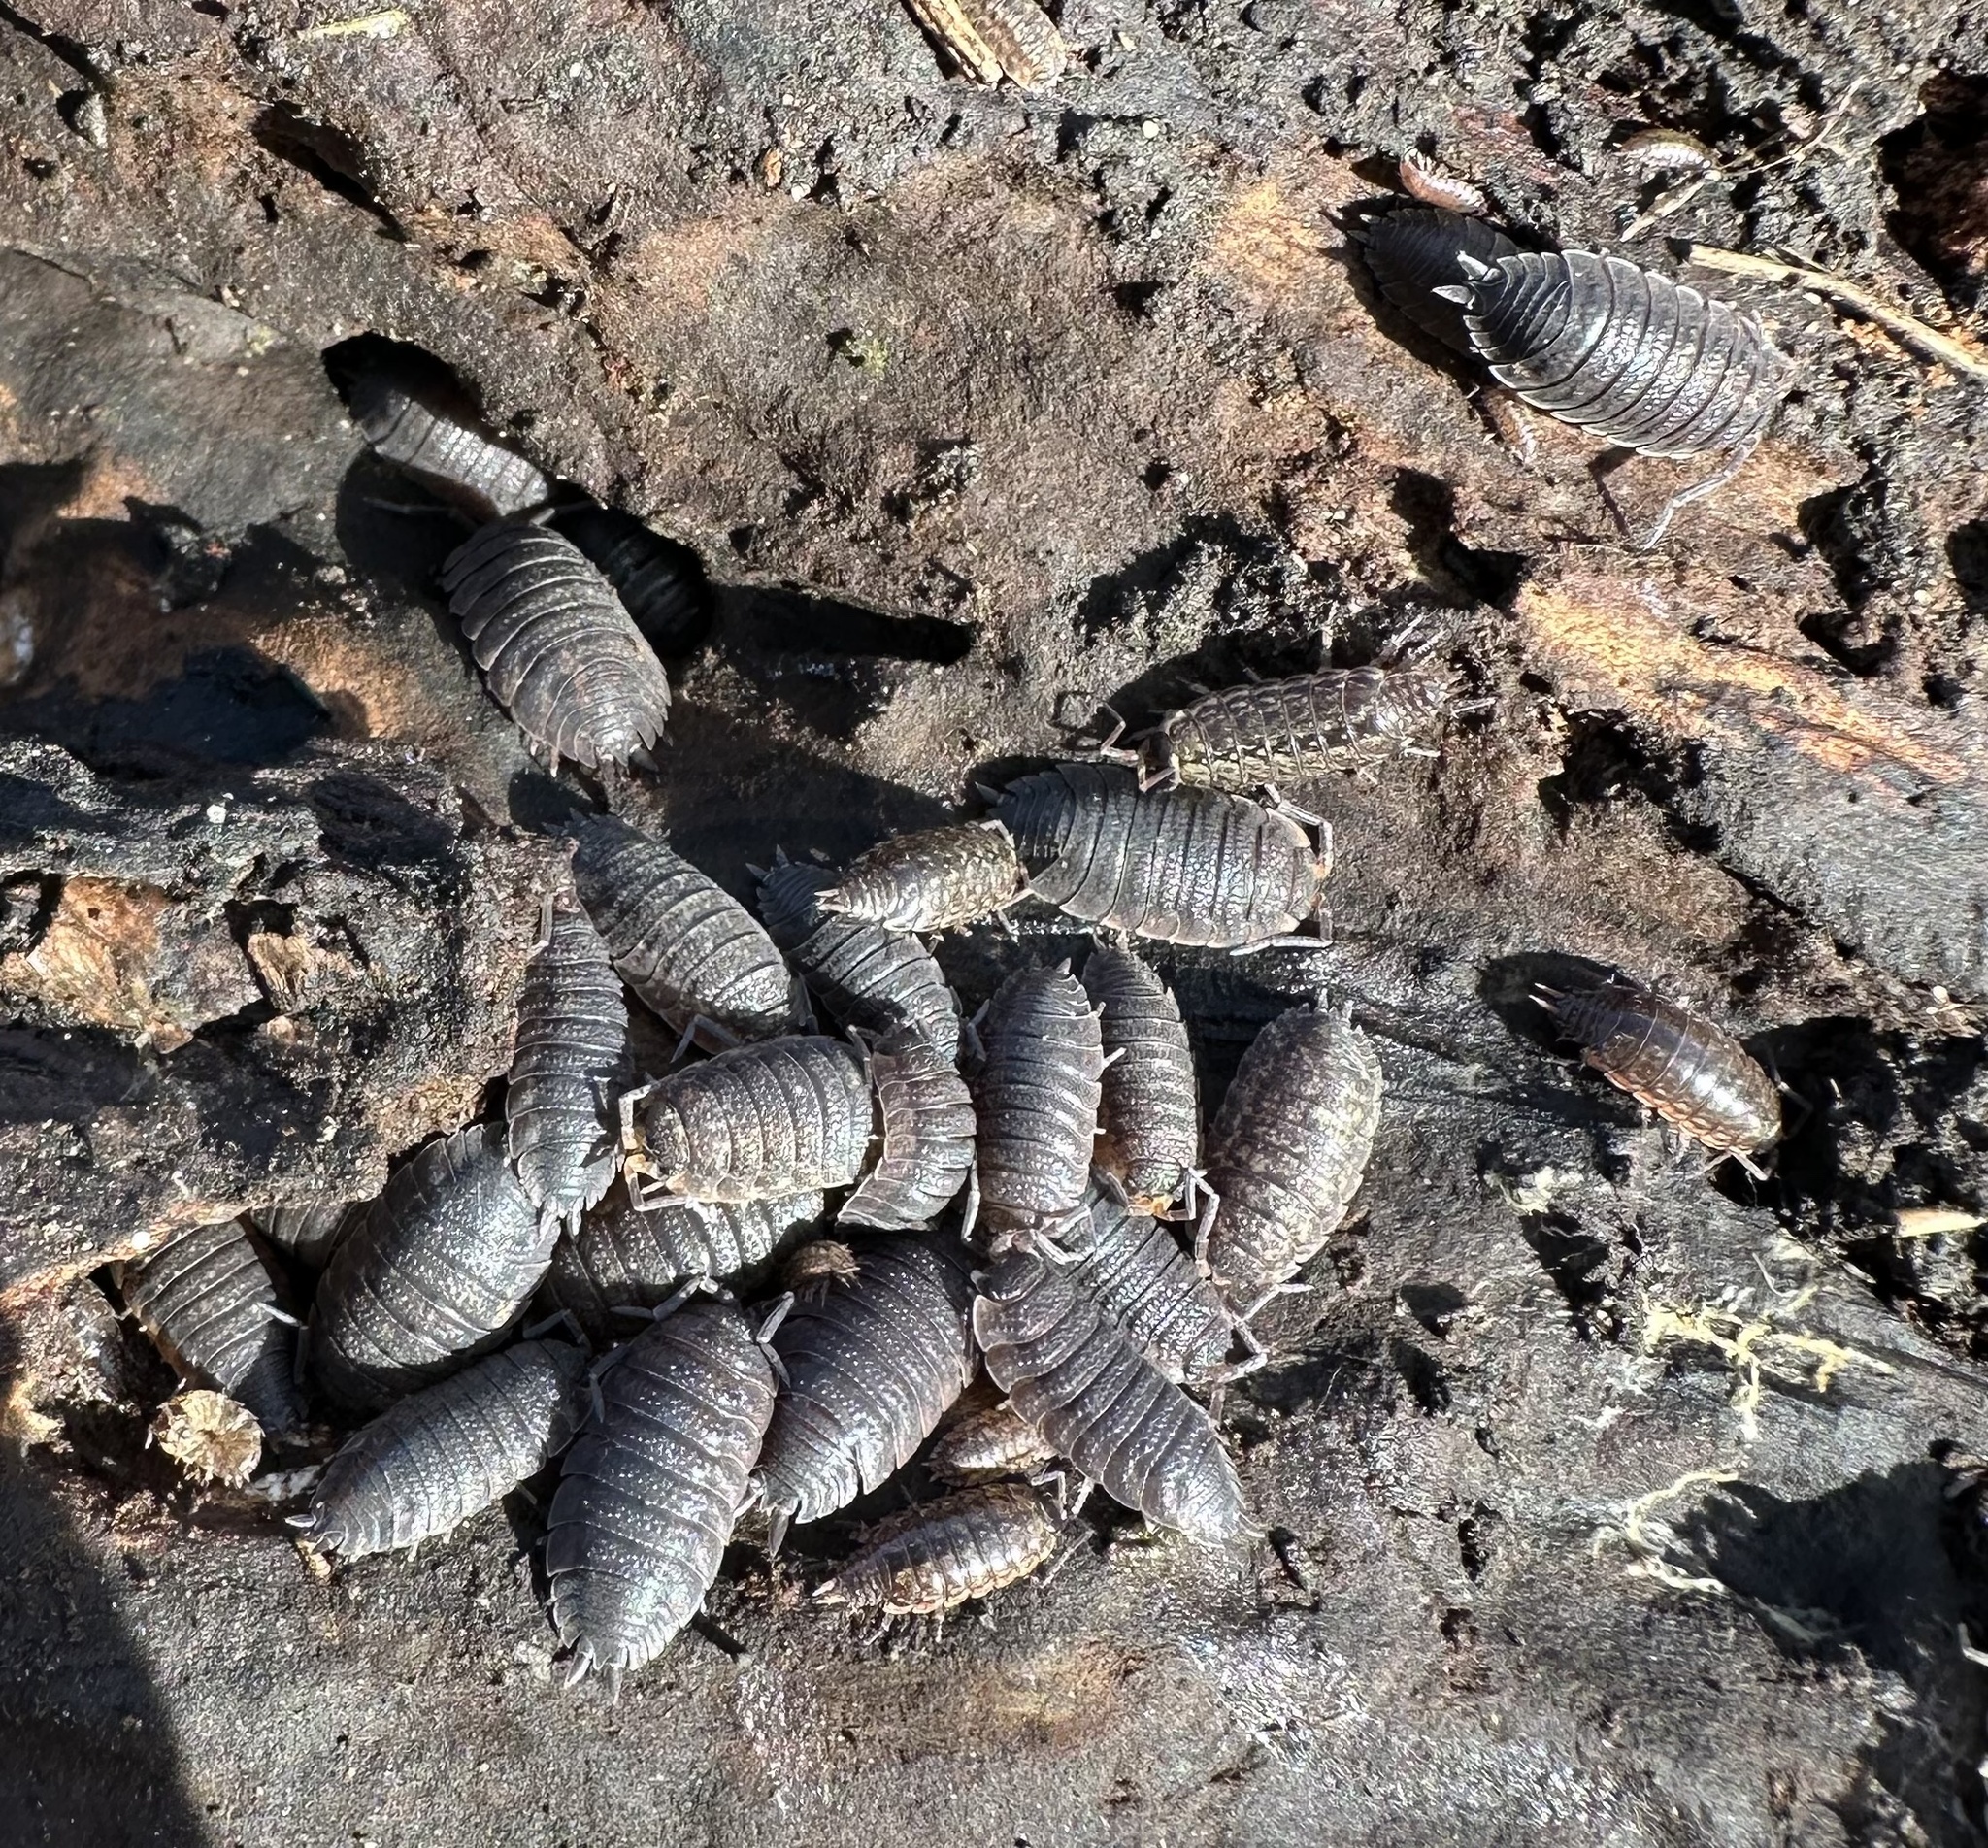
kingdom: Animalia
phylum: Arthropoda
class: Malacostraca
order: Isopoda
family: Porcellionidae
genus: Porcellio
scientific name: Porcellio scaber
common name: Common rough woodlouse
